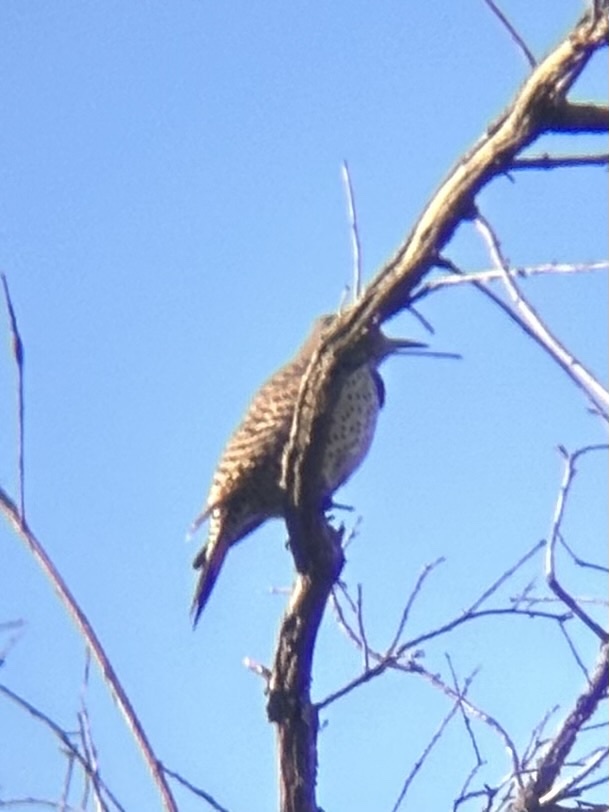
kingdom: Animalia
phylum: Chordata
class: Aves
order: Piciformes
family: Picidae
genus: Colaptes
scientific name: Colaptes auratus
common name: Northern flicker
